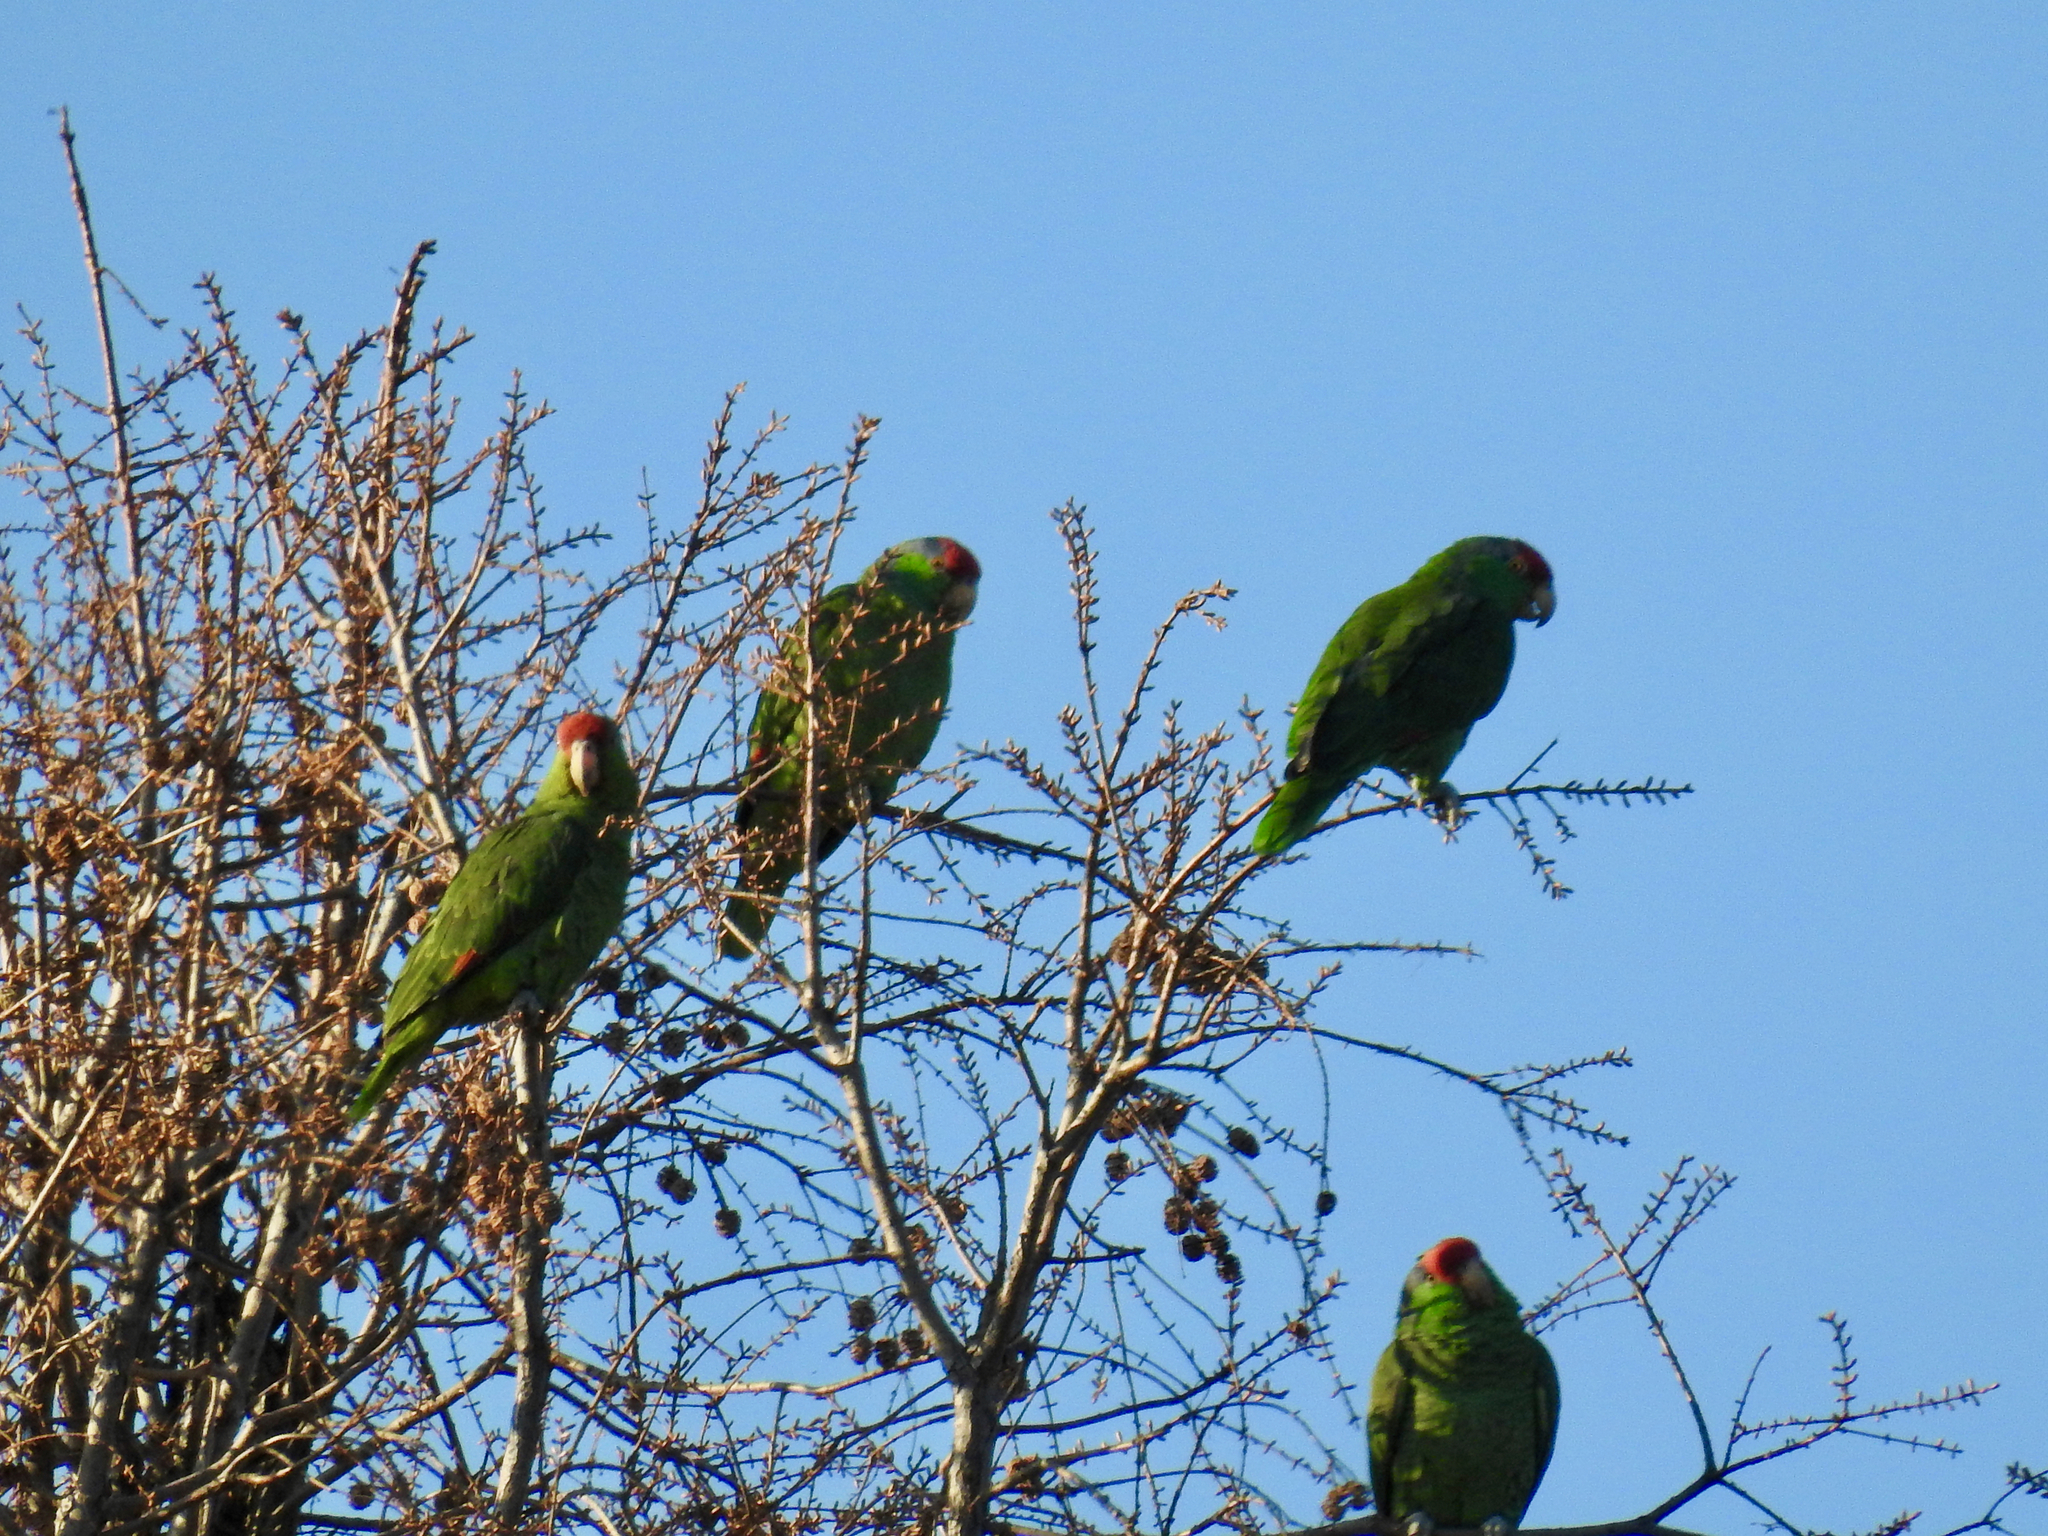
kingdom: Animalia
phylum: Chordata
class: Aves
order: Psittaciformes
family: Psittacidae
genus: Amazona
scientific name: Amazona viridigenalis
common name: Red-crowned amazon
